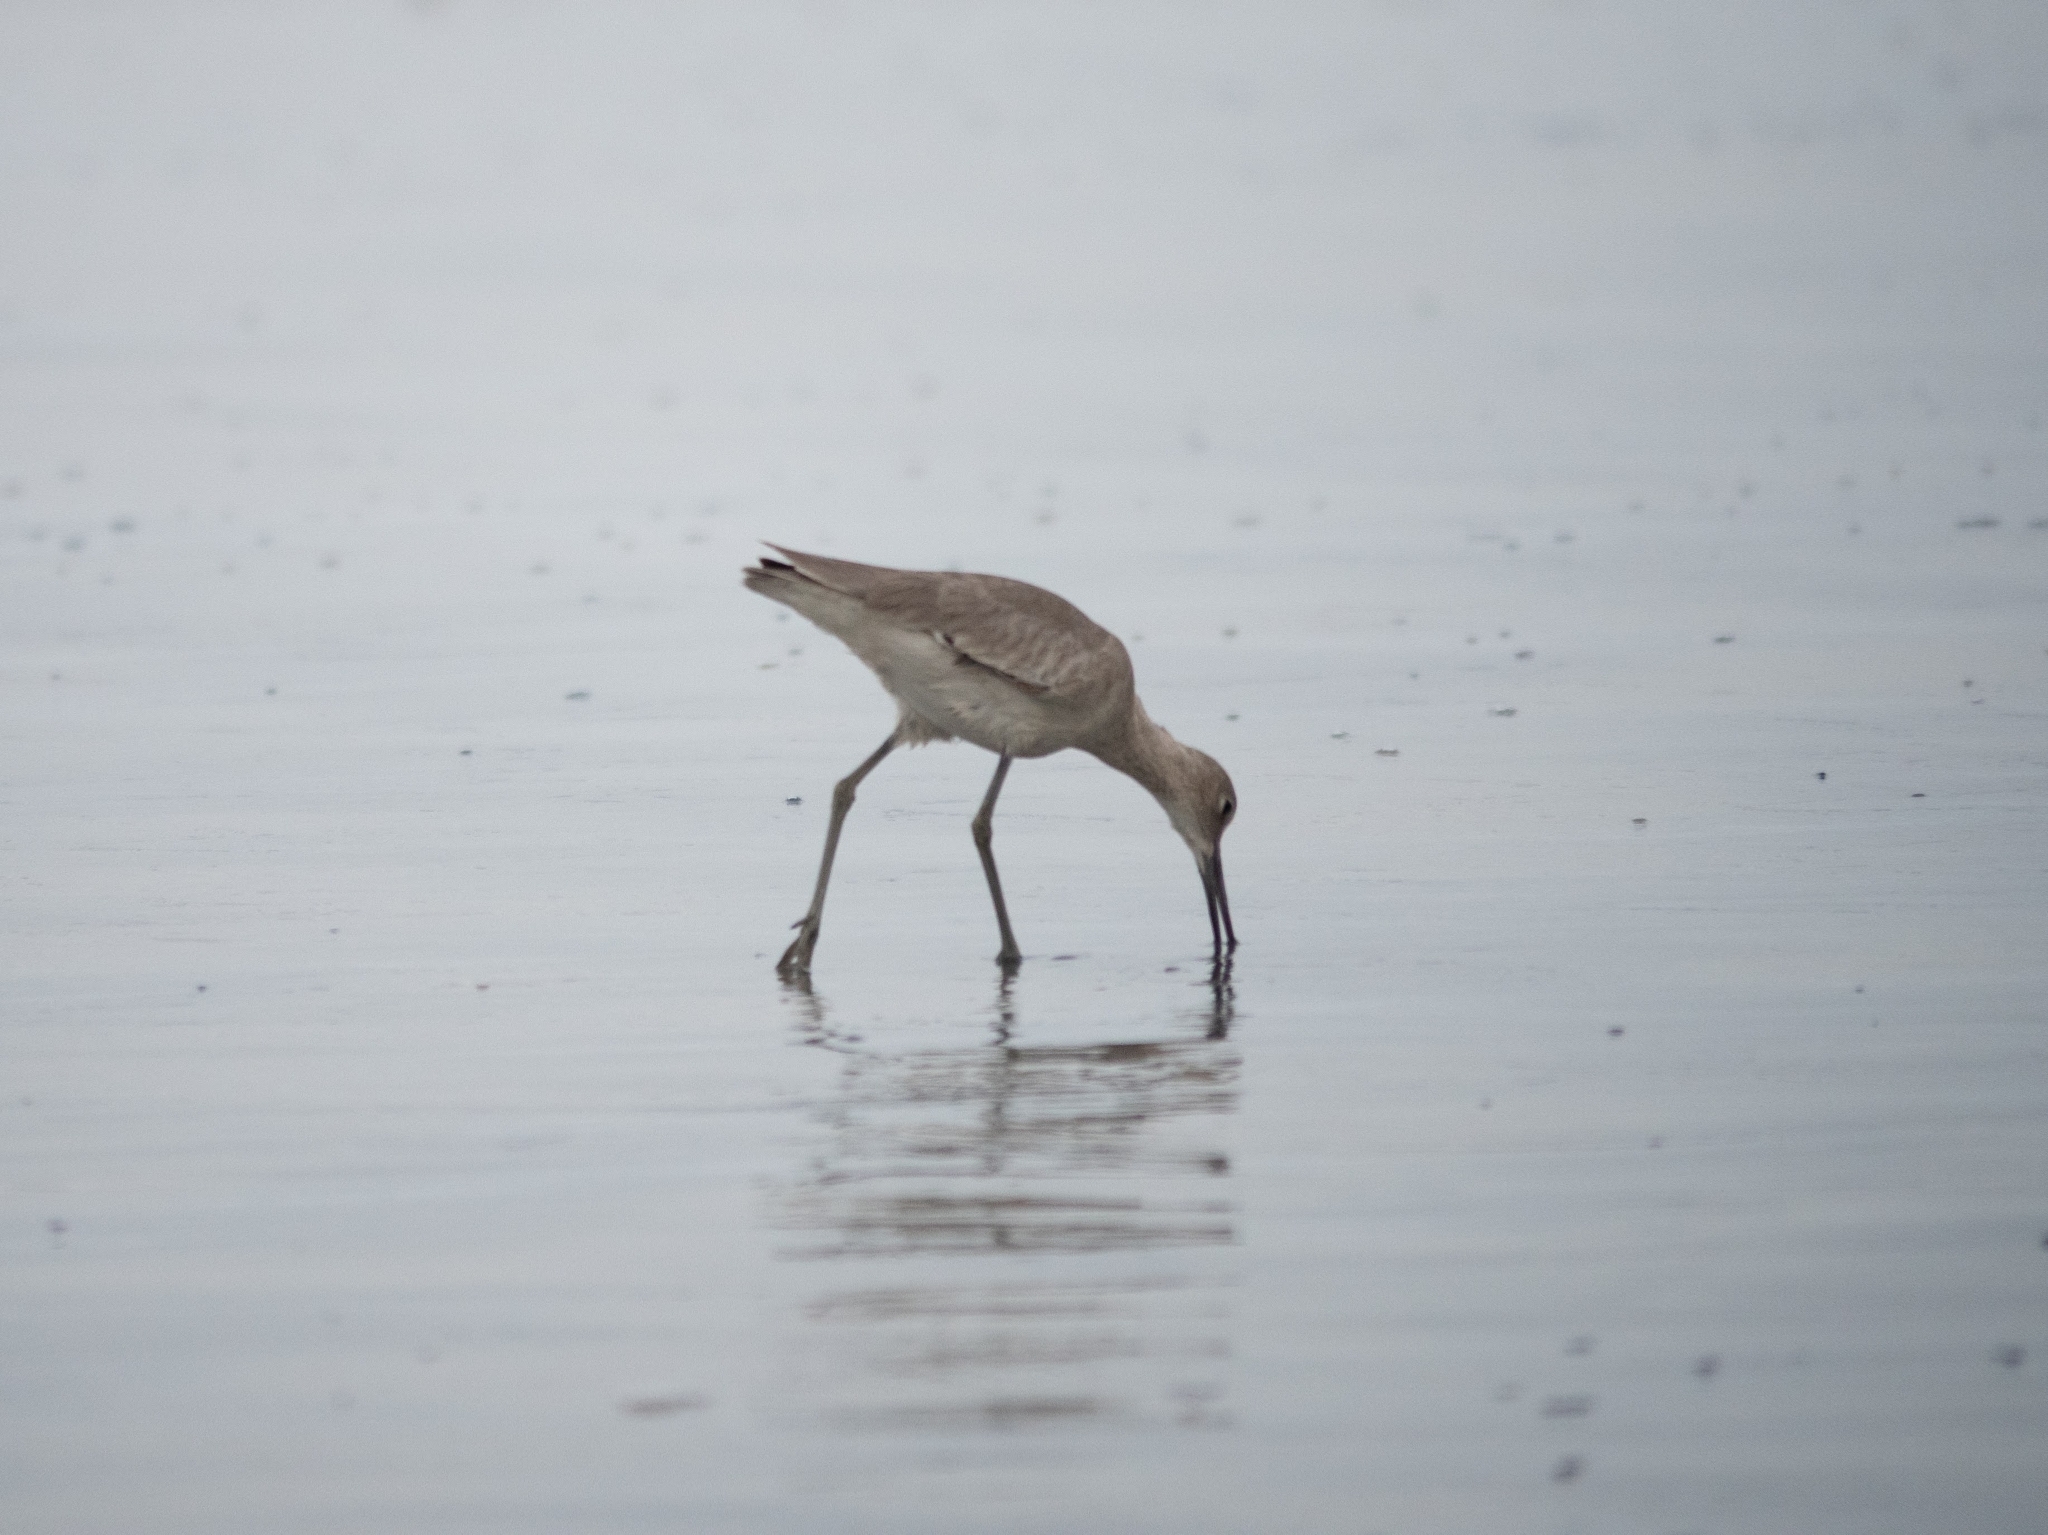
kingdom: Animalia
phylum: Chordata
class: Aves
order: Charadriiformes
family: Scolopacidae
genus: Tringa
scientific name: Tringa semipalmata
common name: Willet
